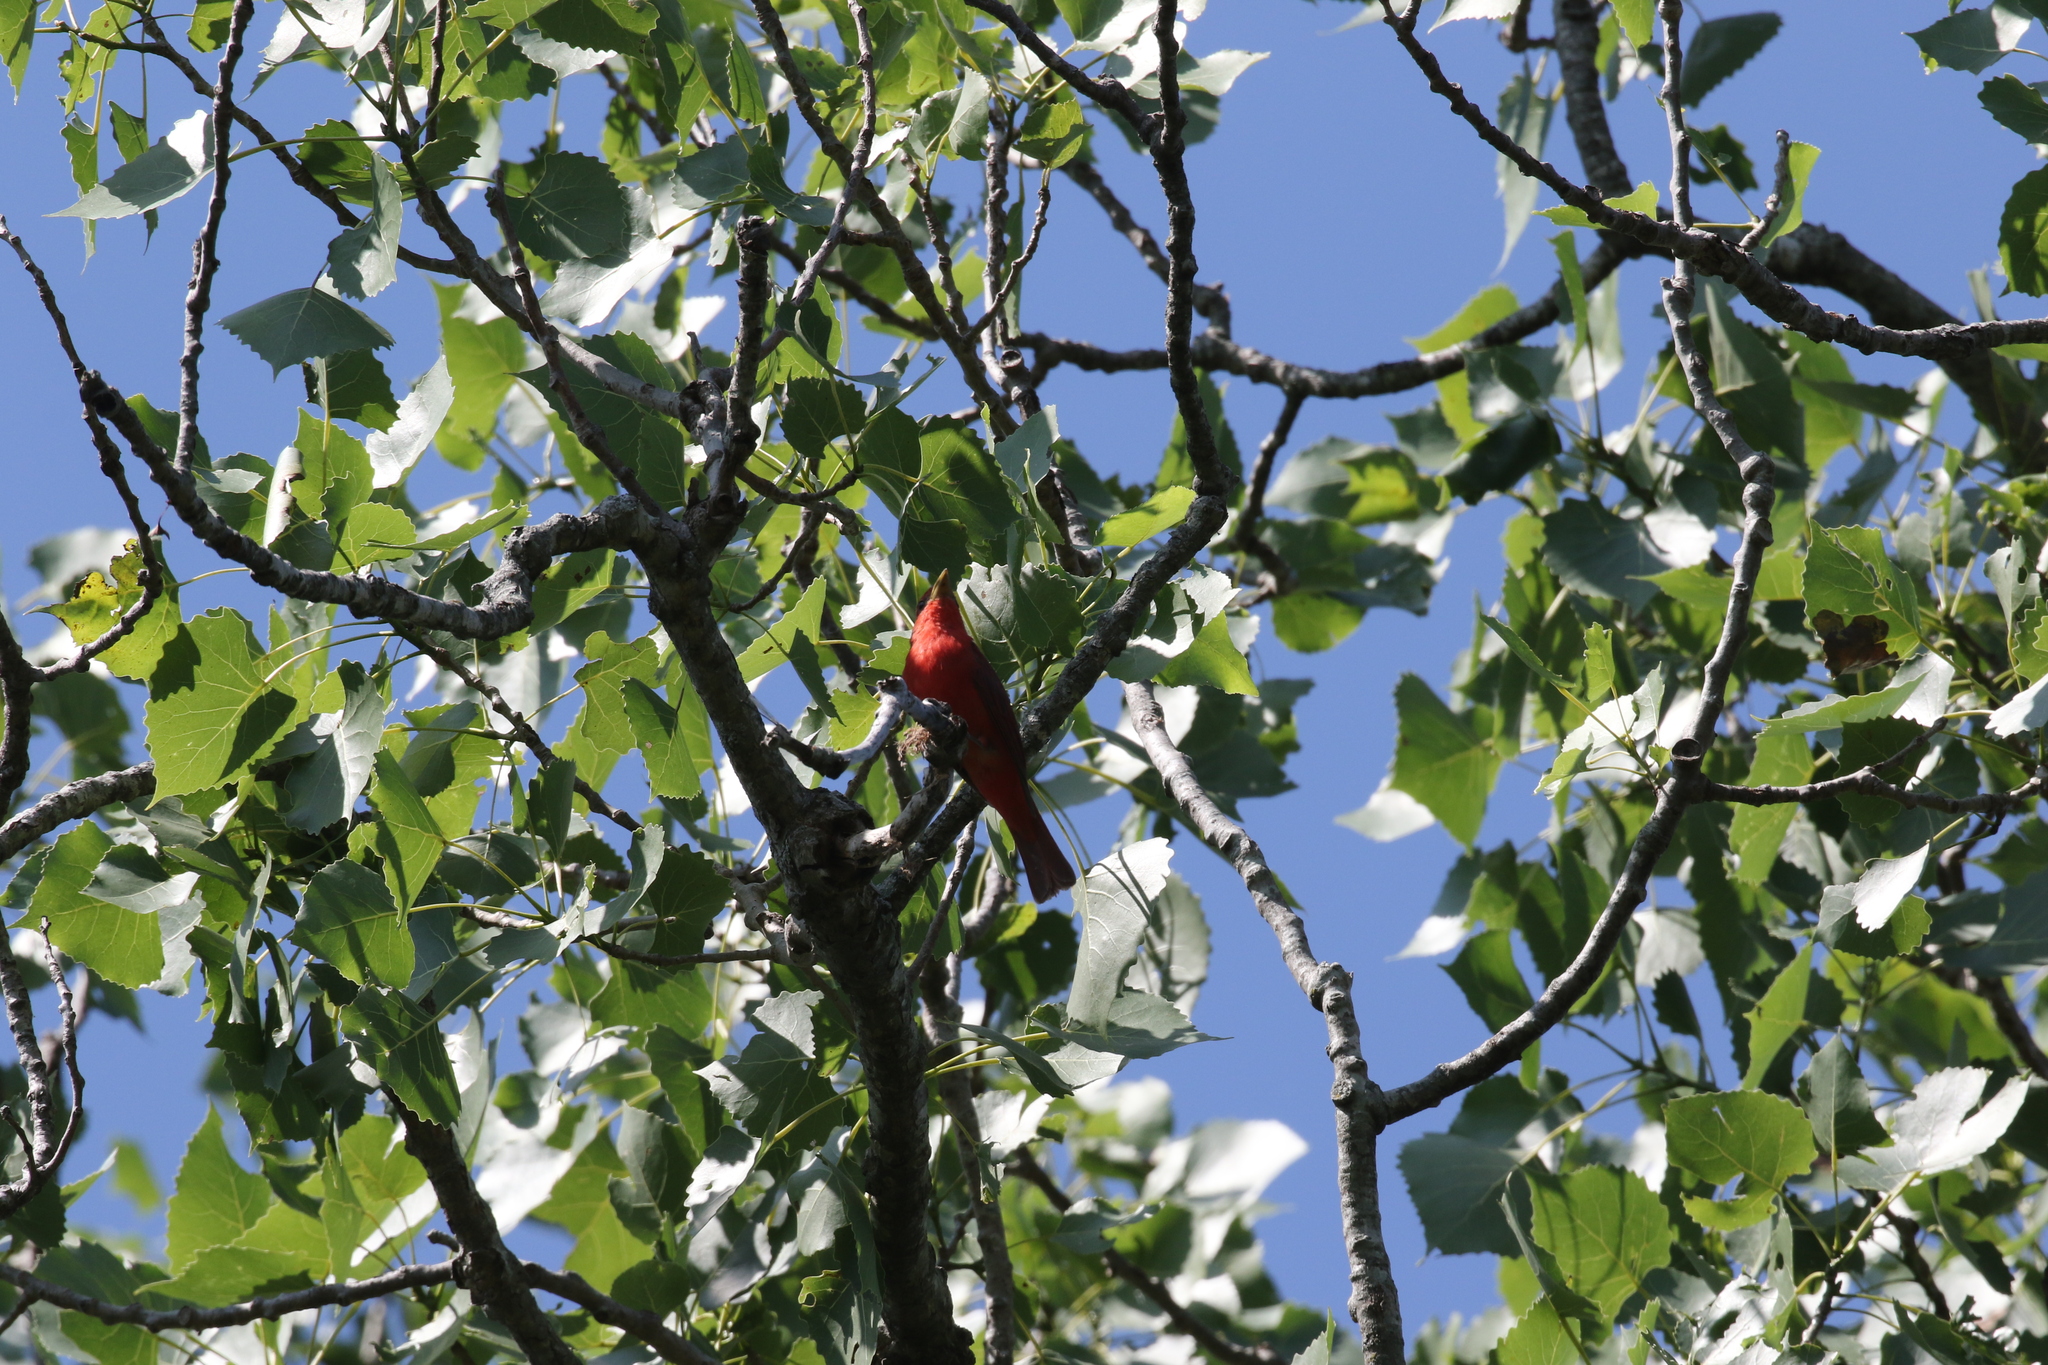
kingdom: Animalia
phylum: Chordata
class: Aves
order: Passeriformes
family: Cardinalidae
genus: Piranga
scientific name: Piranga rubra
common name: Summer tanager
